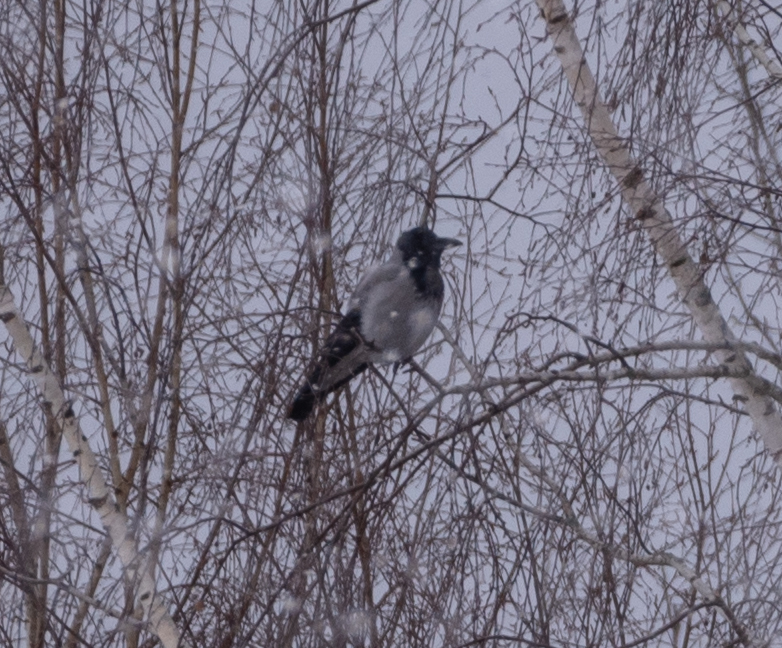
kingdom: Animalia
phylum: Chordata
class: Aves
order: Passeriformes
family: Corvidae
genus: Corvus
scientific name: Corvus cornix
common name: Hooded crow
